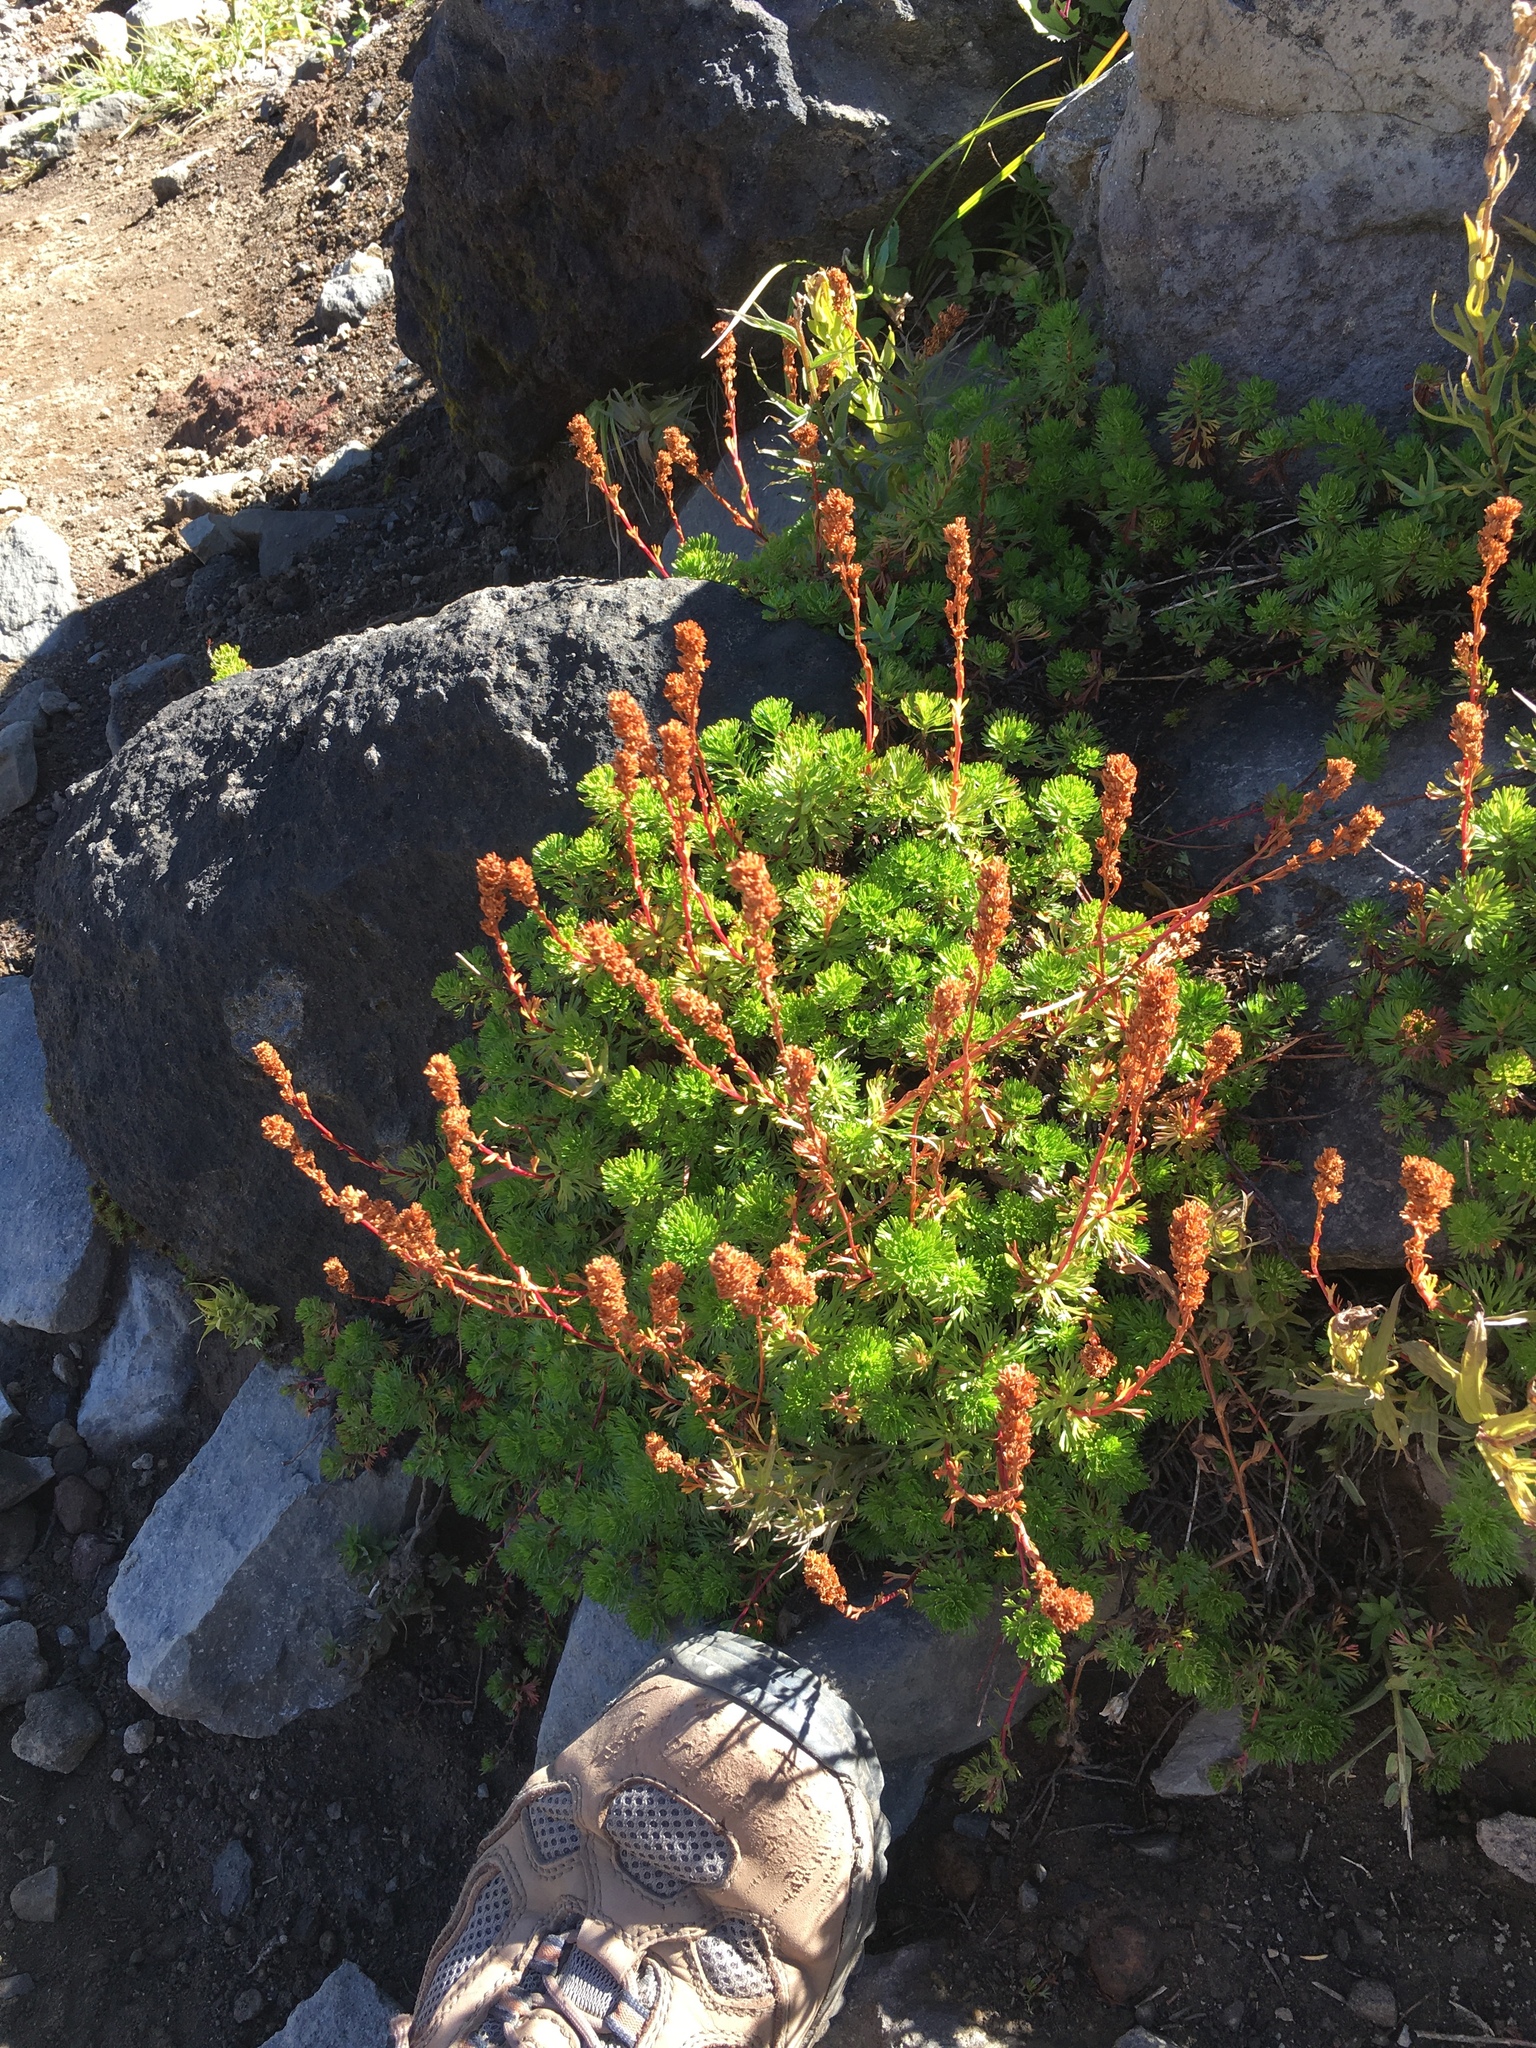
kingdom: Plantae
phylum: Tracheophyta
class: Magnoliopsida
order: Rosales
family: Rosaceae
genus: Luetkea
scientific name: Luetkea pectinata
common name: Partridgefoot
